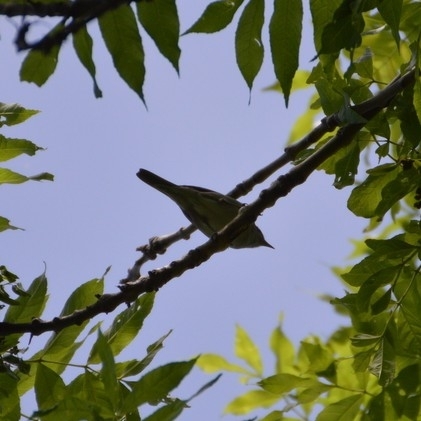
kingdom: Animalia
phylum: Chordata
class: Aves
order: Passeriformes
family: Phylloscopidae
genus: Phylloscopus
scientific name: Phylloscopus
